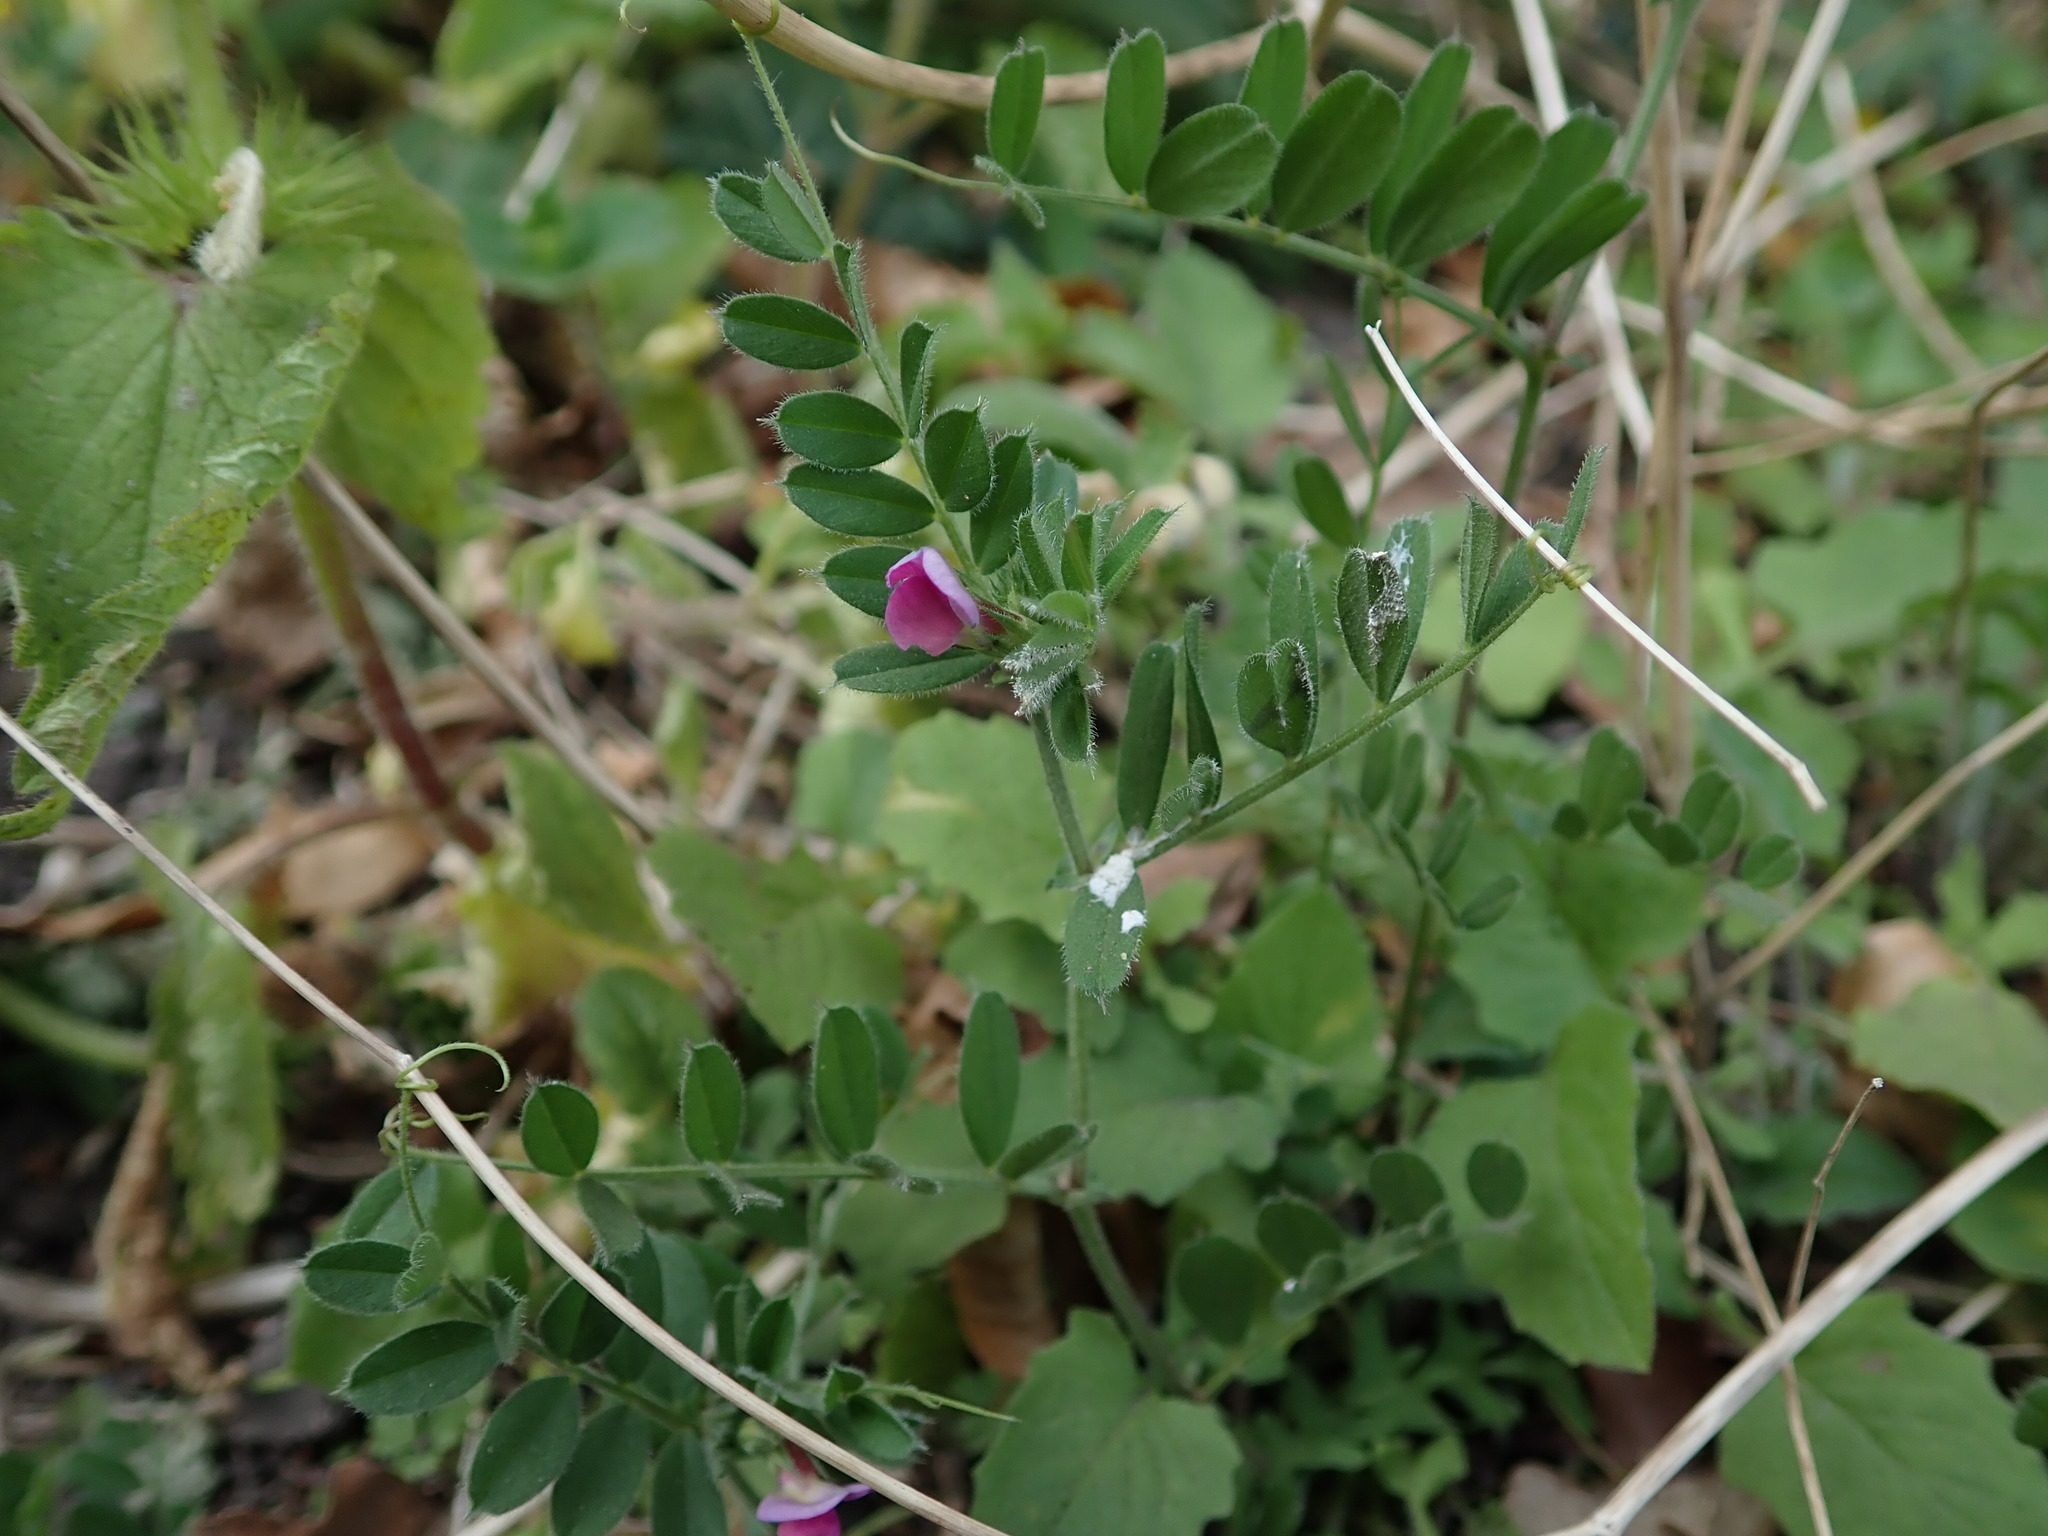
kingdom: Plantae
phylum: Tracheophyta
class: Magnoliopsida
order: Fabales
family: Fabaceae
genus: Vicia
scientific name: Vicia sativa
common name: Garden vetch
